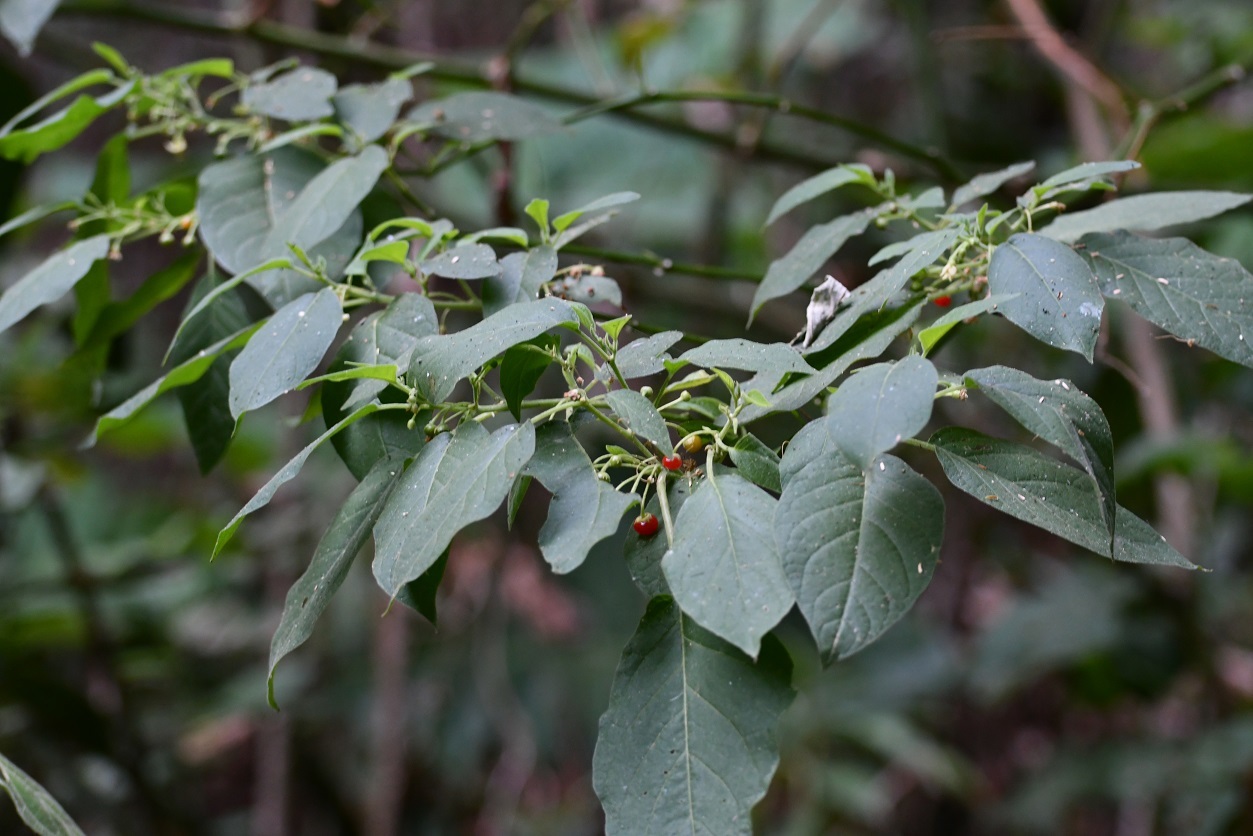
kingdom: Plantae
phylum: Tracheophyta
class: Magnoliopsida
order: Solanales
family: Solanaceae
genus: Witheringia
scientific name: Witheringia meiantha
